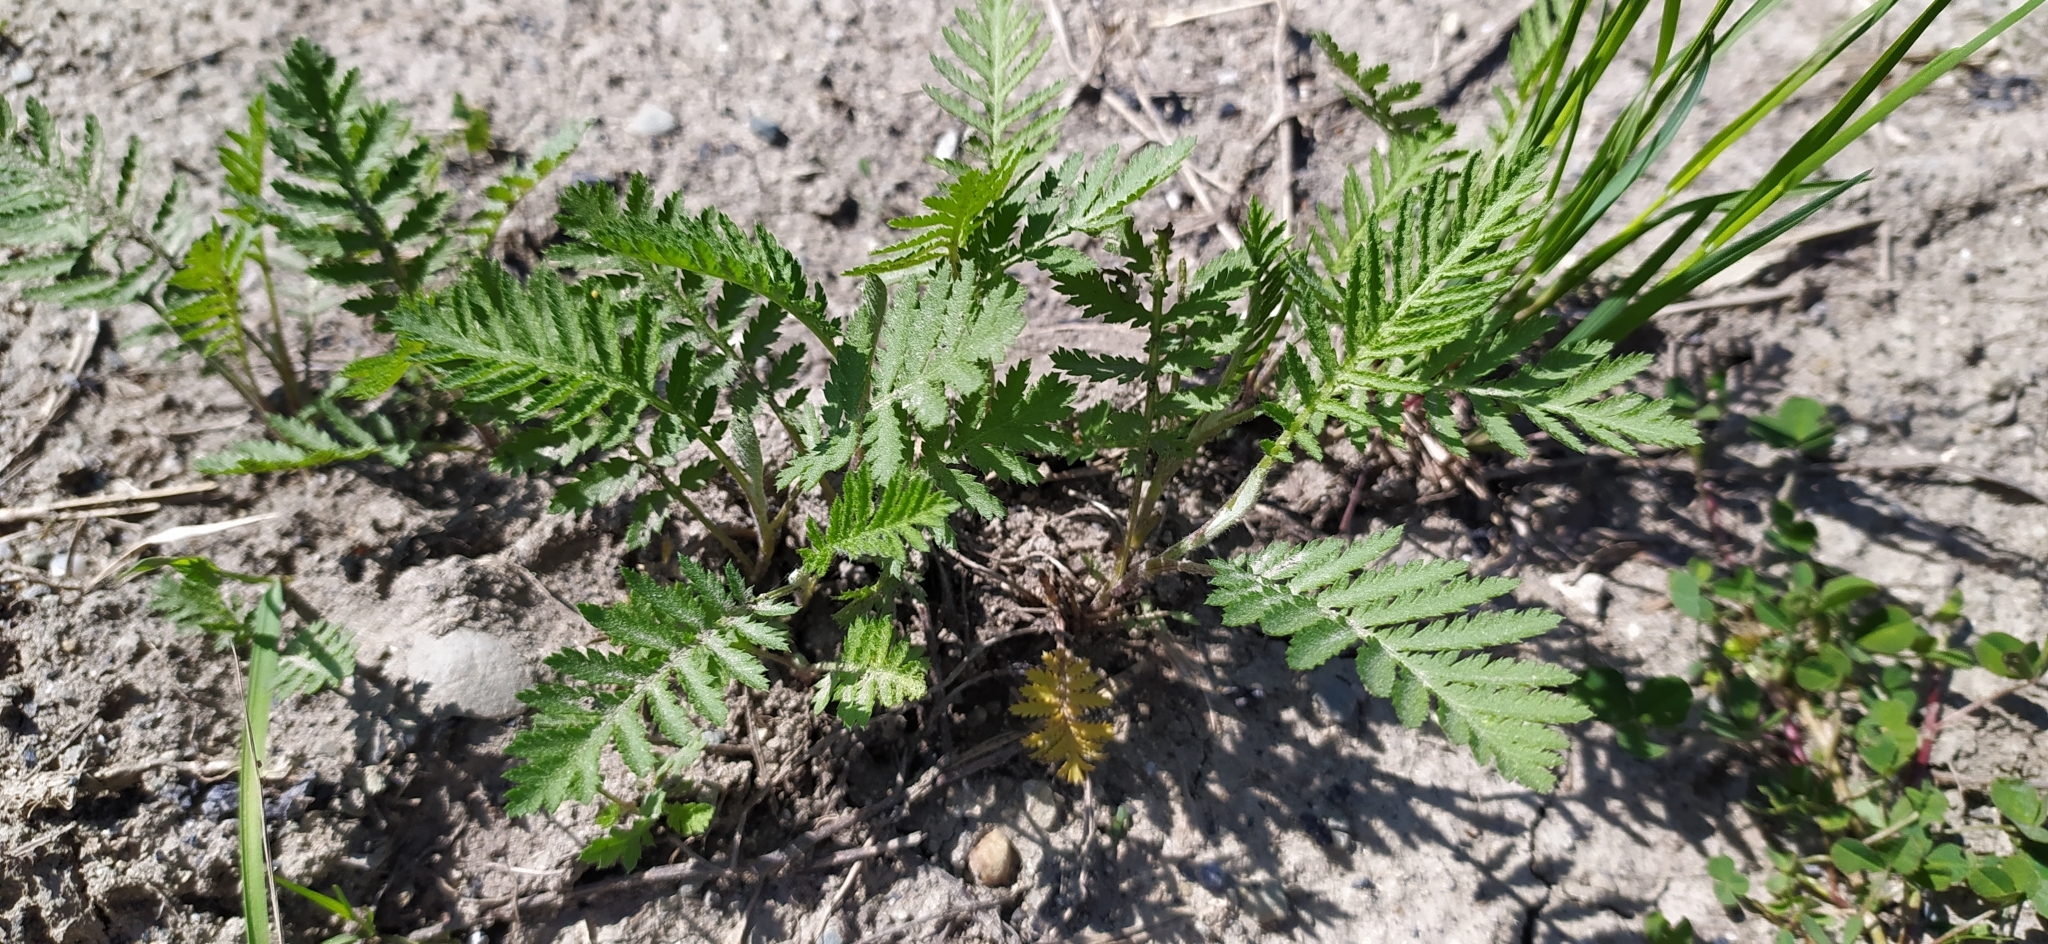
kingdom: Plantae
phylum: Tracheophyta
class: Magnoliopsida
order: Asterales
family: Asteraceae
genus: Tanacetum
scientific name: Tanacetum vulgare
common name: Common tansy
